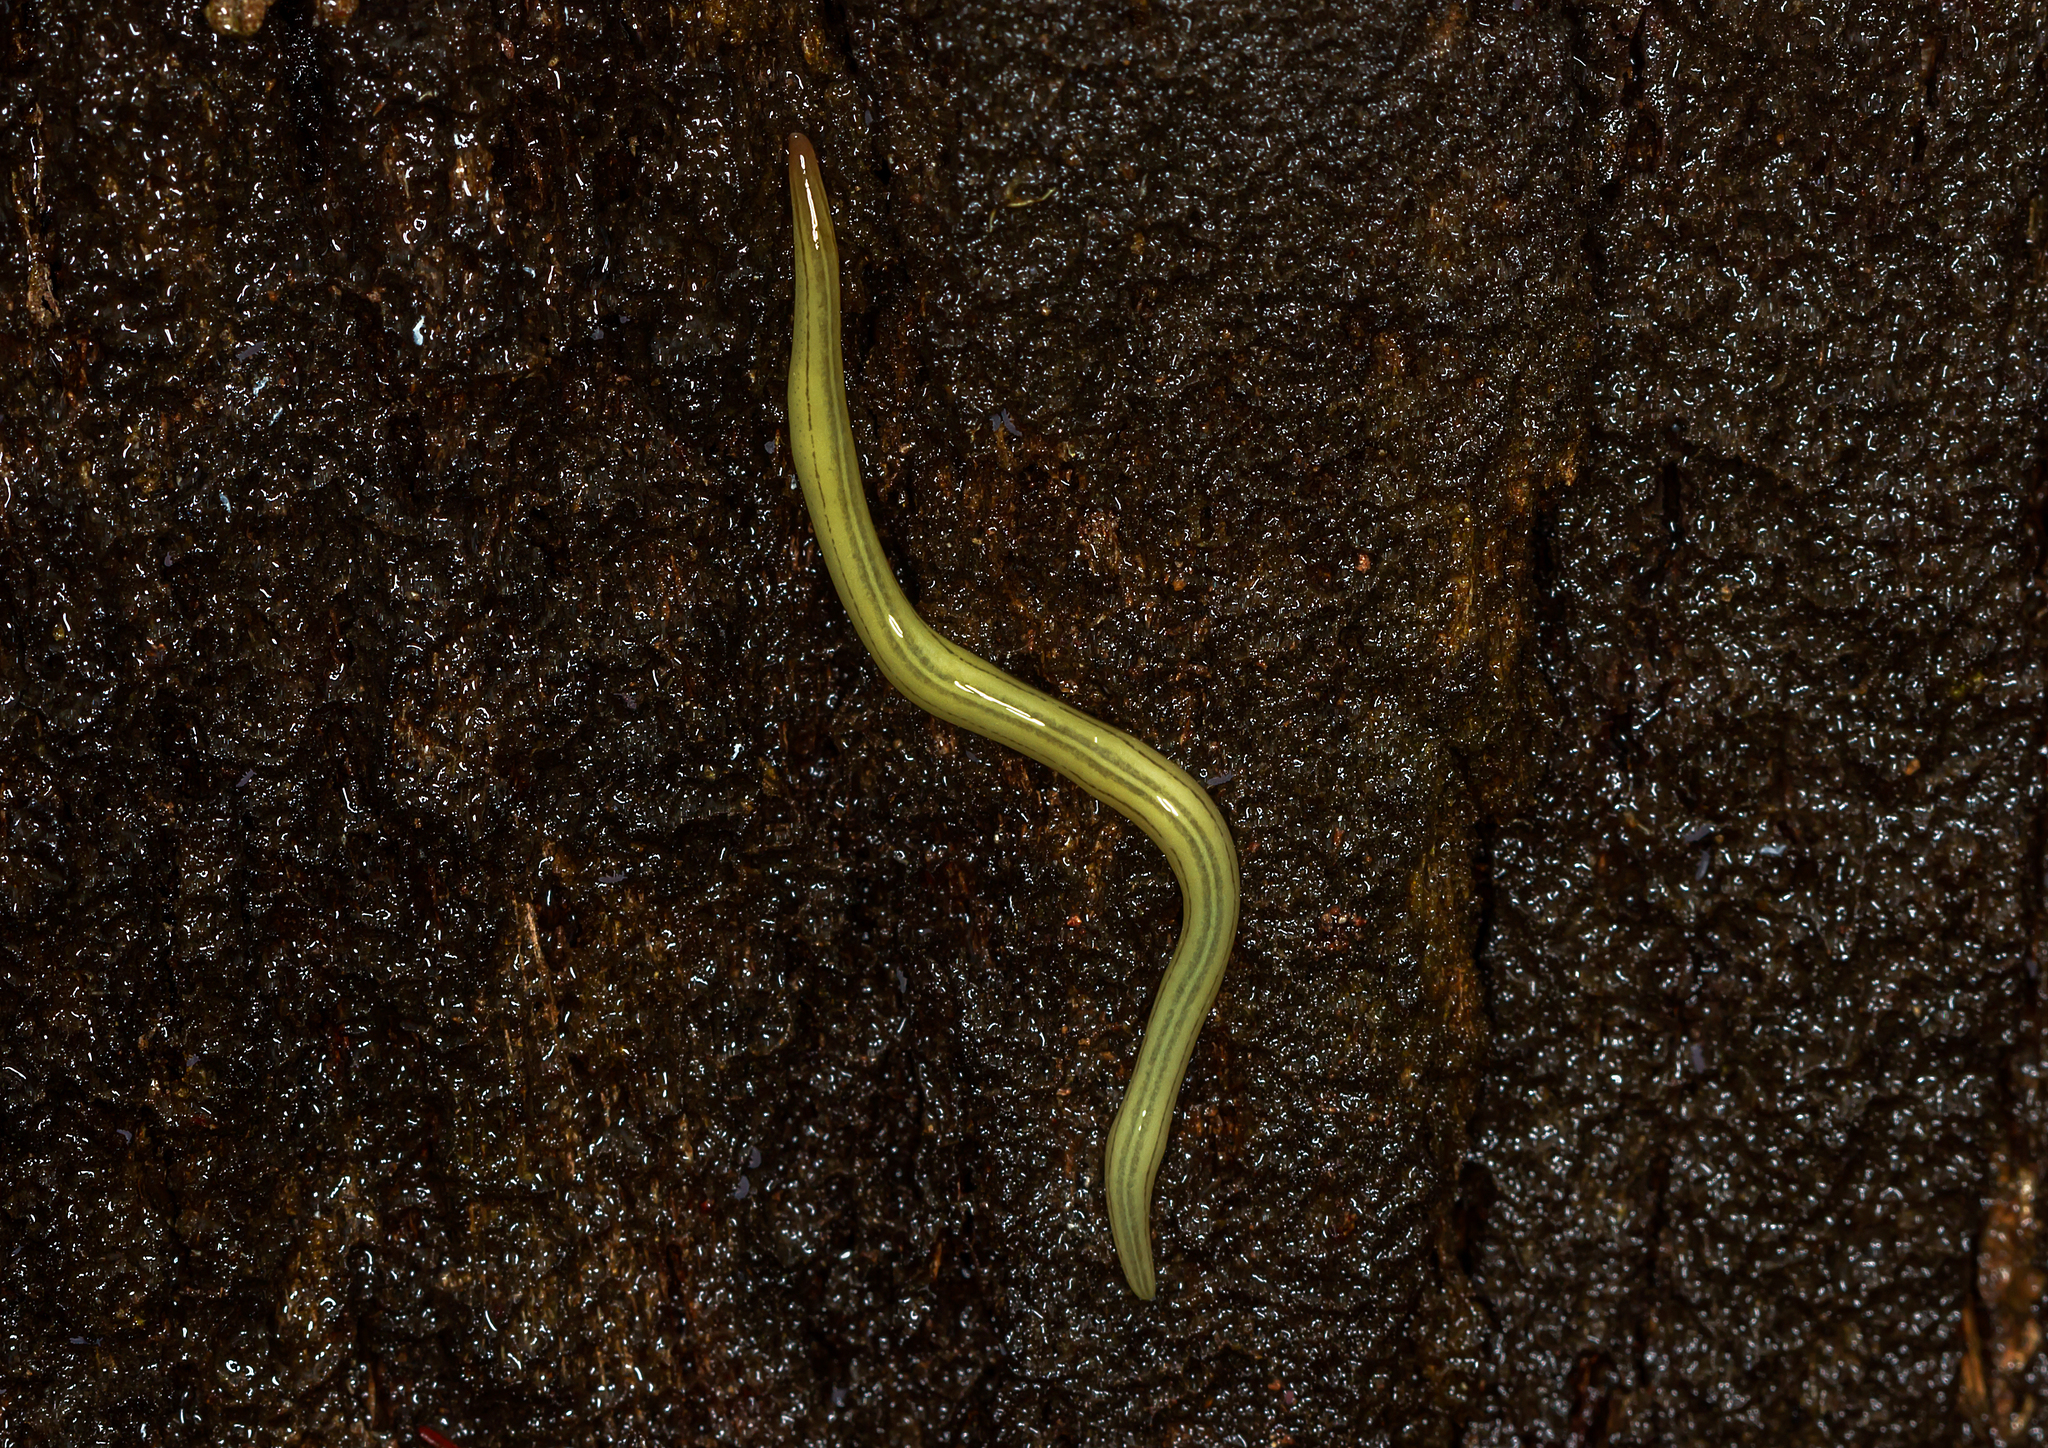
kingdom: Animalia
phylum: Platyhelminthes
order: Tricladida
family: Geoplanidae
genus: Caenoplana
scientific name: Caenoplana hoggii
